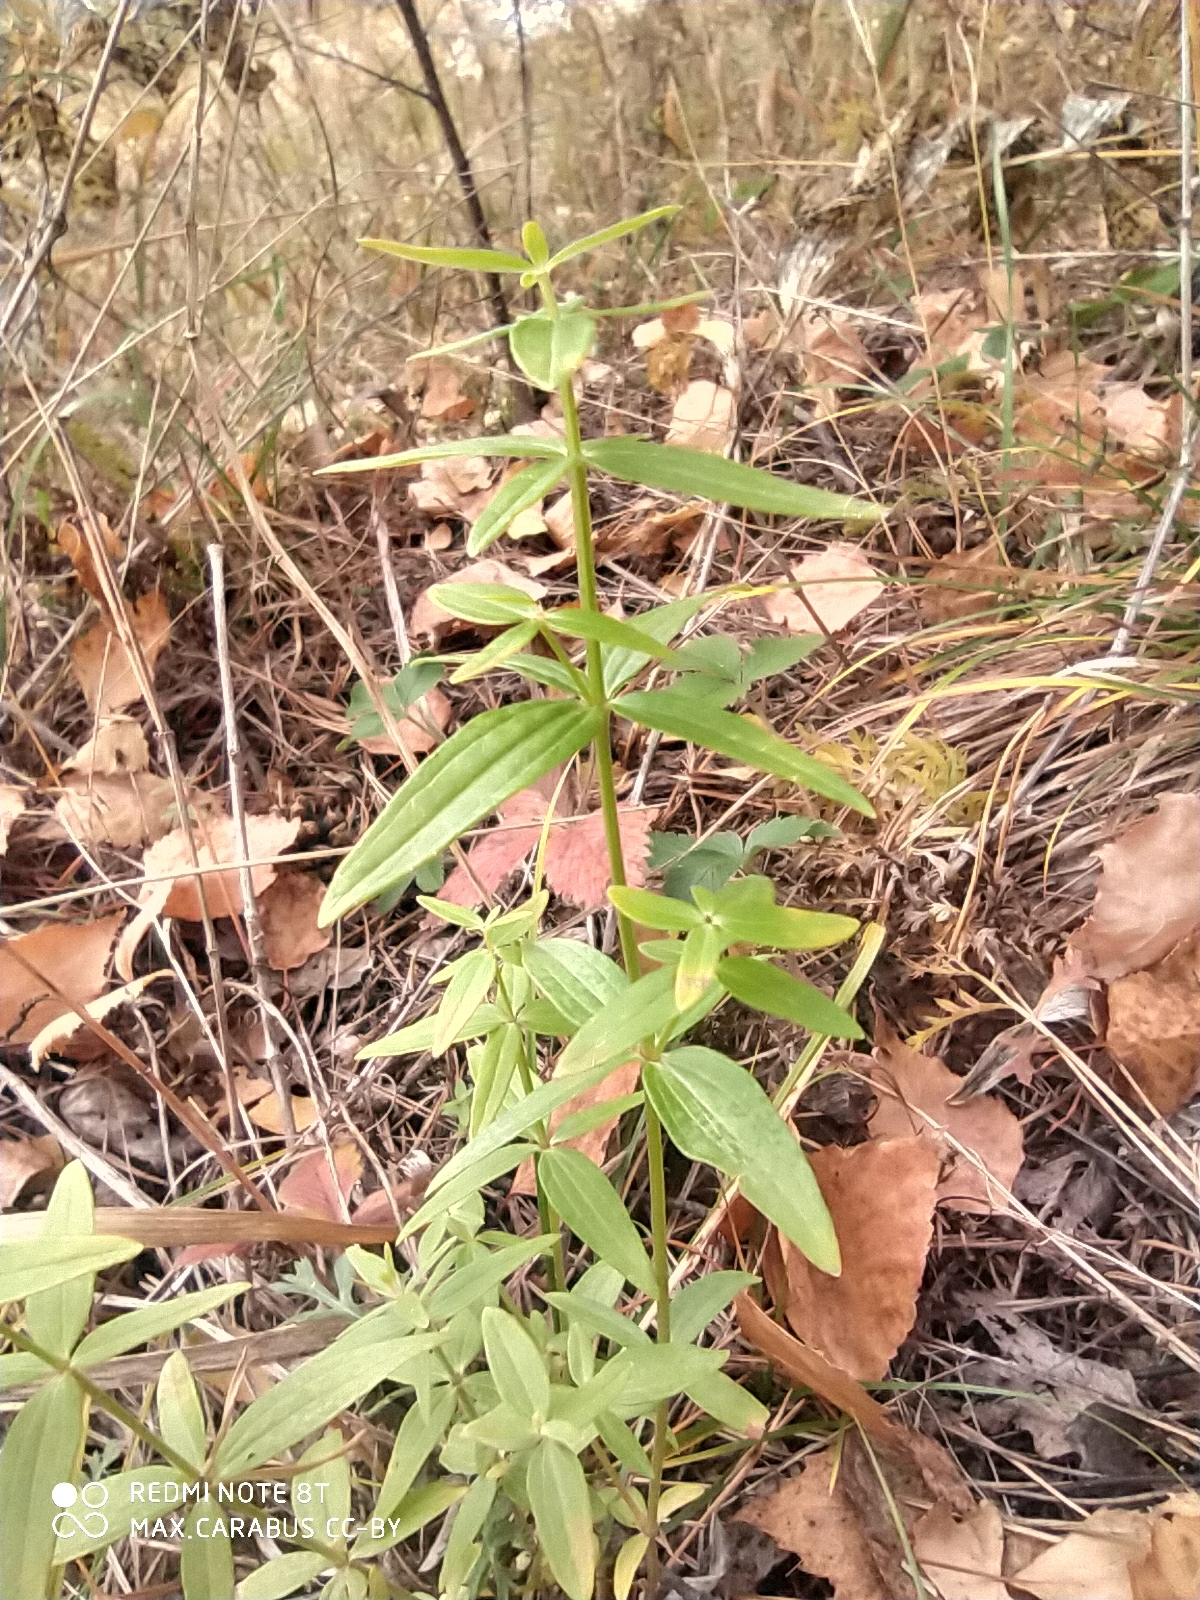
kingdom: Plantae
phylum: Tracheophyta
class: Magnoliopsida
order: Gentianales
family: Rubiaceae
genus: Galium
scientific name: Galium boreale
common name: Northern bedstraw
